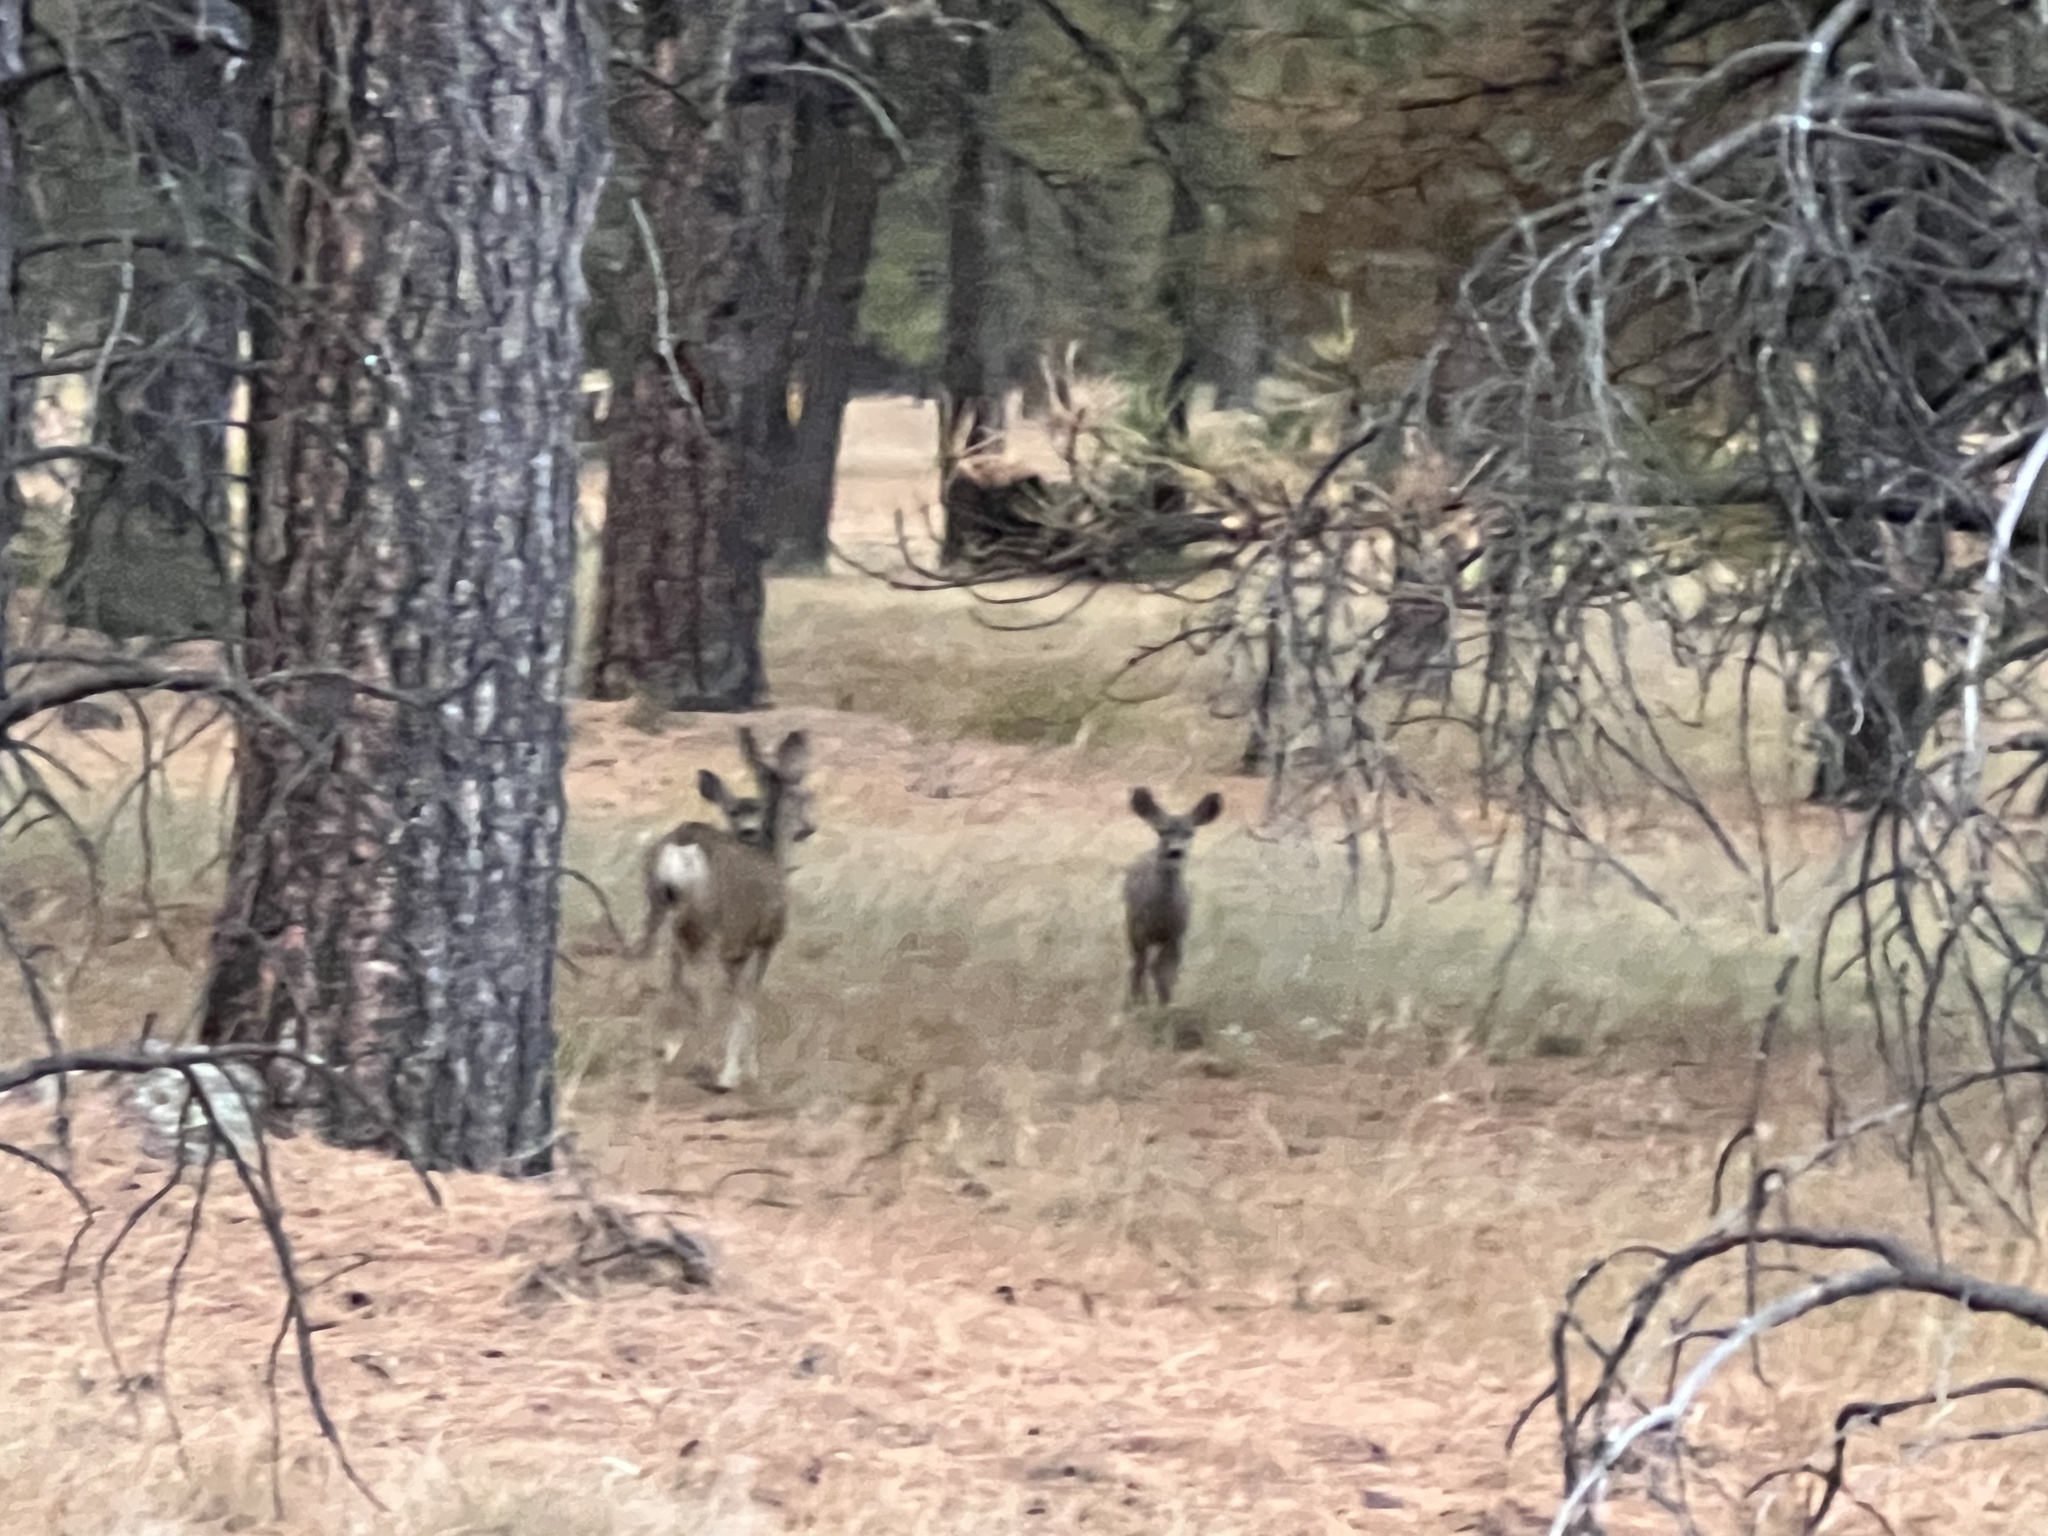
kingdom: Animalia
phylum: Chordata
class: Mammalia
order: Artiodactyla
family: Cervidae
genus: Odocoileus
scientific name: Odocoileus hemionus
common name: Mule deer
